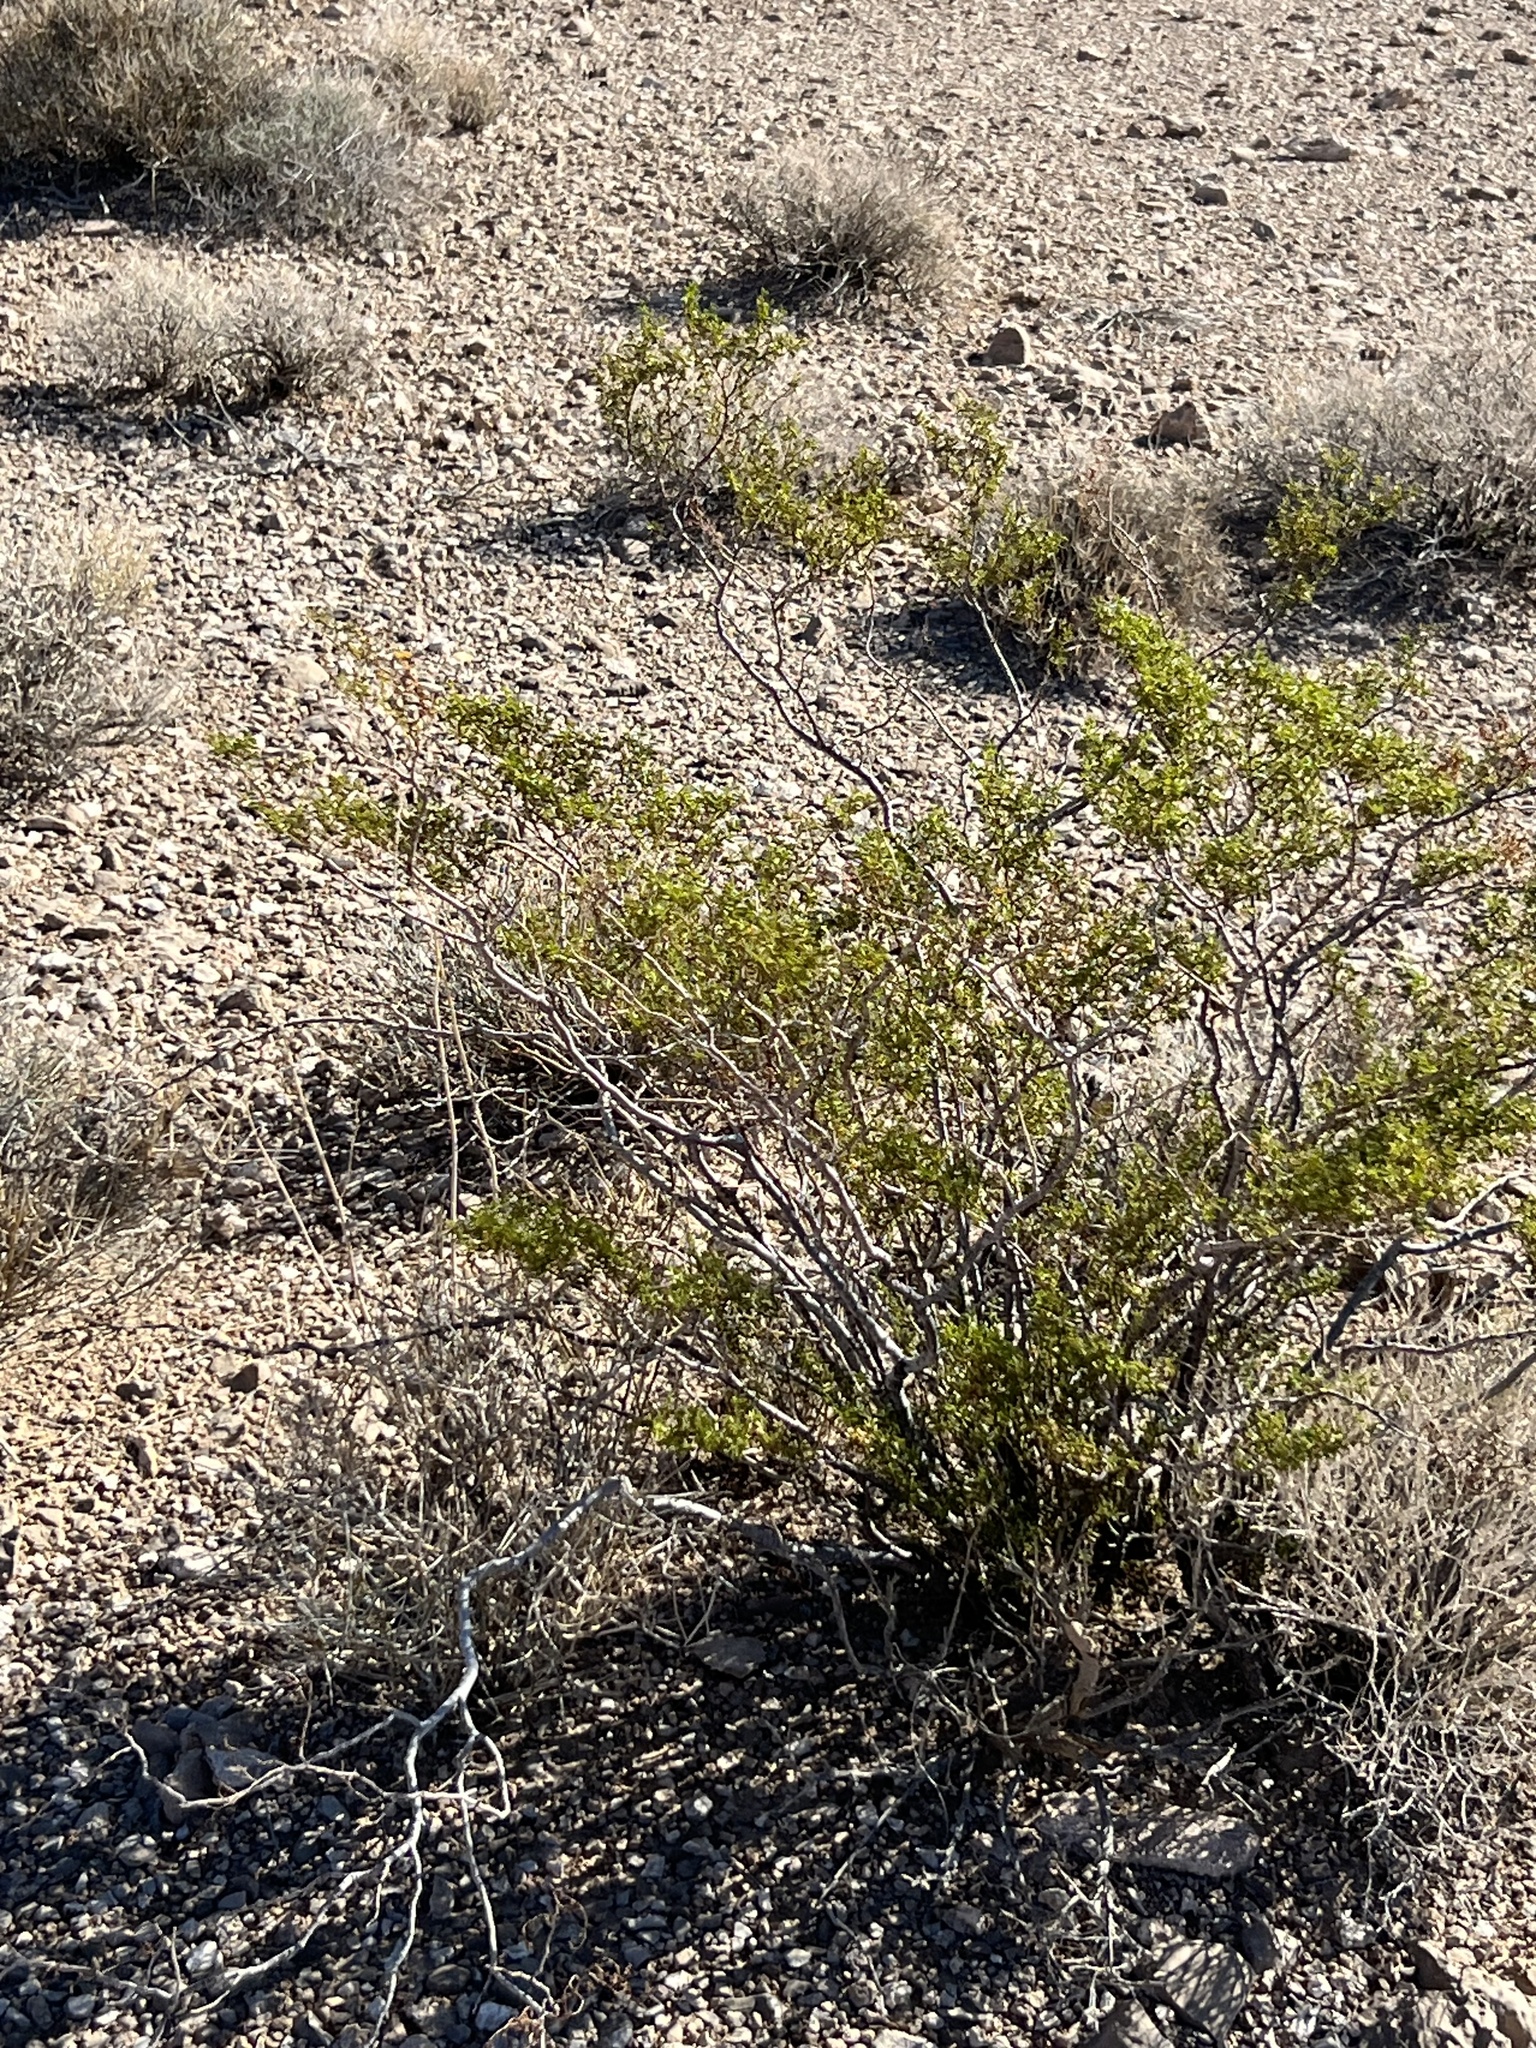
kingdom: Plantae
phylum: Tracheophyta
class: Magnoliopsida
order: Zygophyllales
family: Zygophyllaceae
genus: Larrea
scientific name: Larrea tridentata
